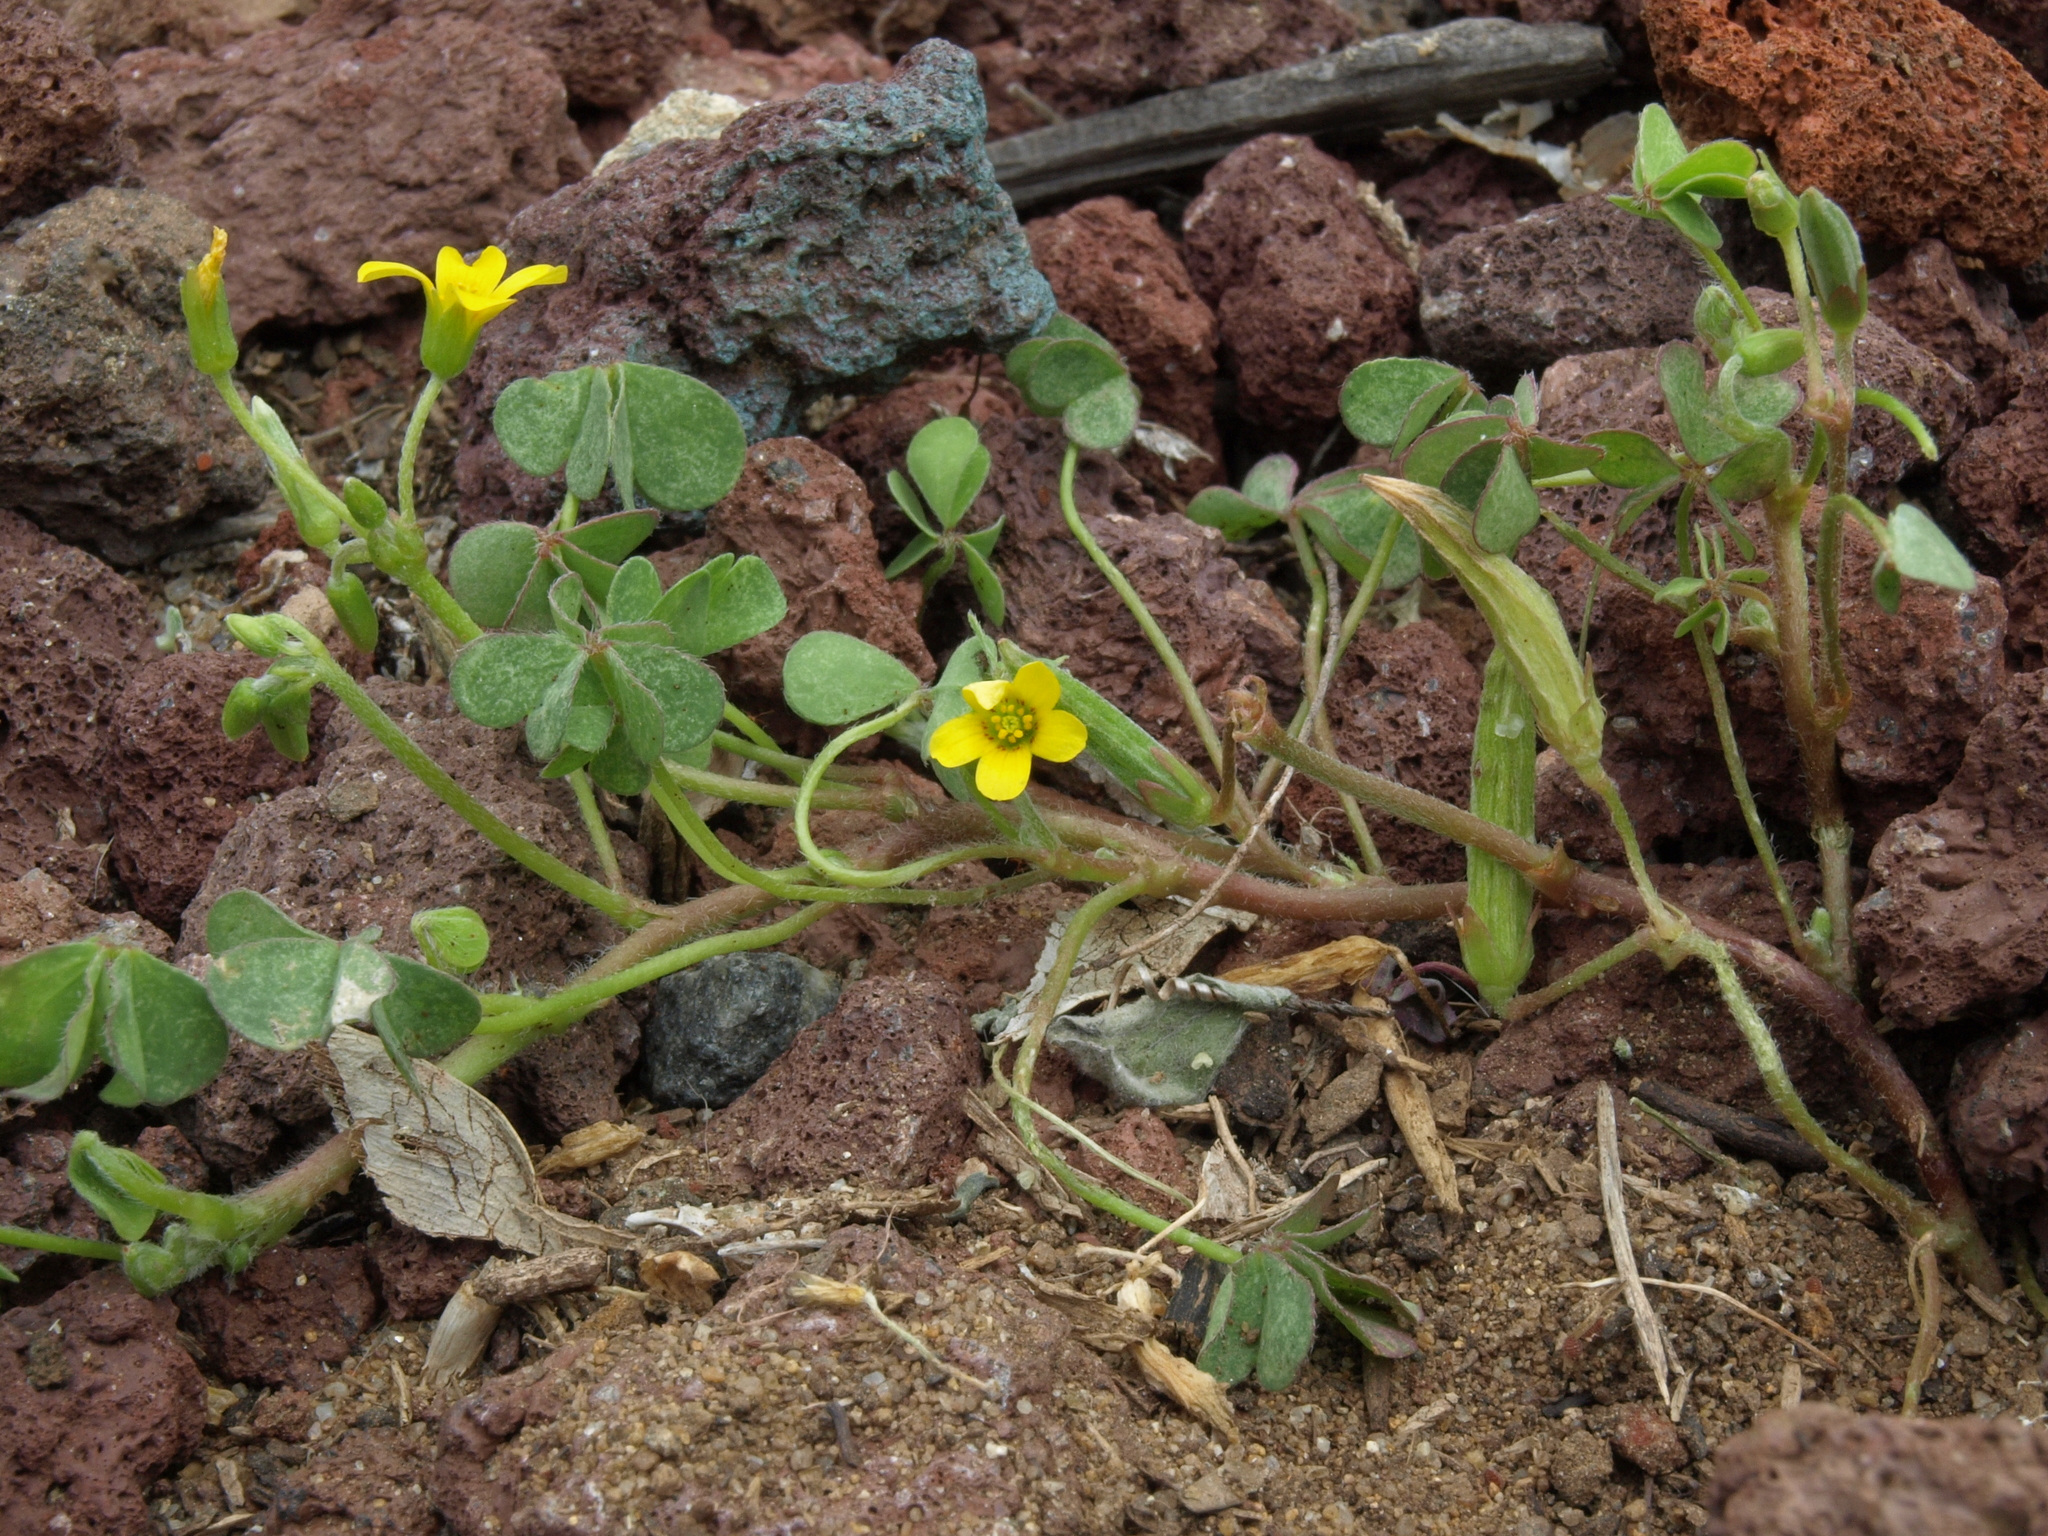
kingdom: Plantae
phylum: Tracheophyta
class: Magnoliopsida
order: Oxalidales
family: Oxalidaceae
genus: Oxalis
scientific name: Oxalis corniculata
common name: Procumbent yellow-sorrel
